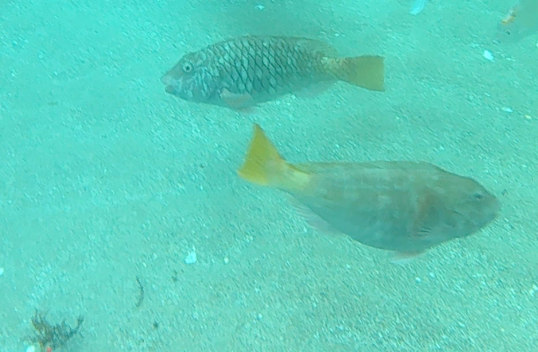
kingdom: Animalia
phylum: Chordata
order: Perciformes
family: Scaridae
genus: Sparisoma
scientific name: Sparisoma rubripinne
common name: Redfin parrotfish
